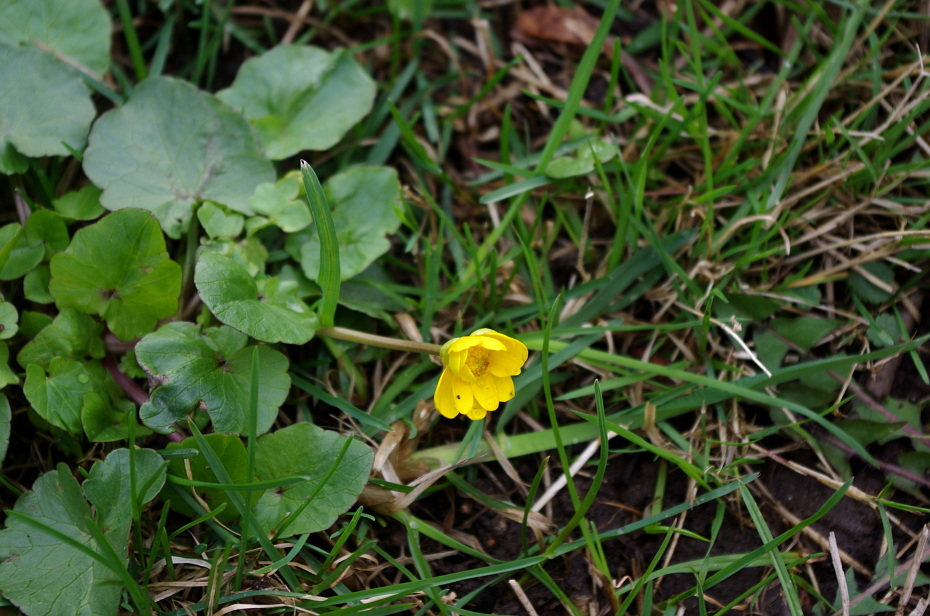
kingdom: Plantae
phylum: Tracheophyta
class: Magnoliopsida
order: Ranunculales
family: Ranunculaceae
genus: Ficaria
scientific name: Ficaria verna
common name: Lesser celandine
